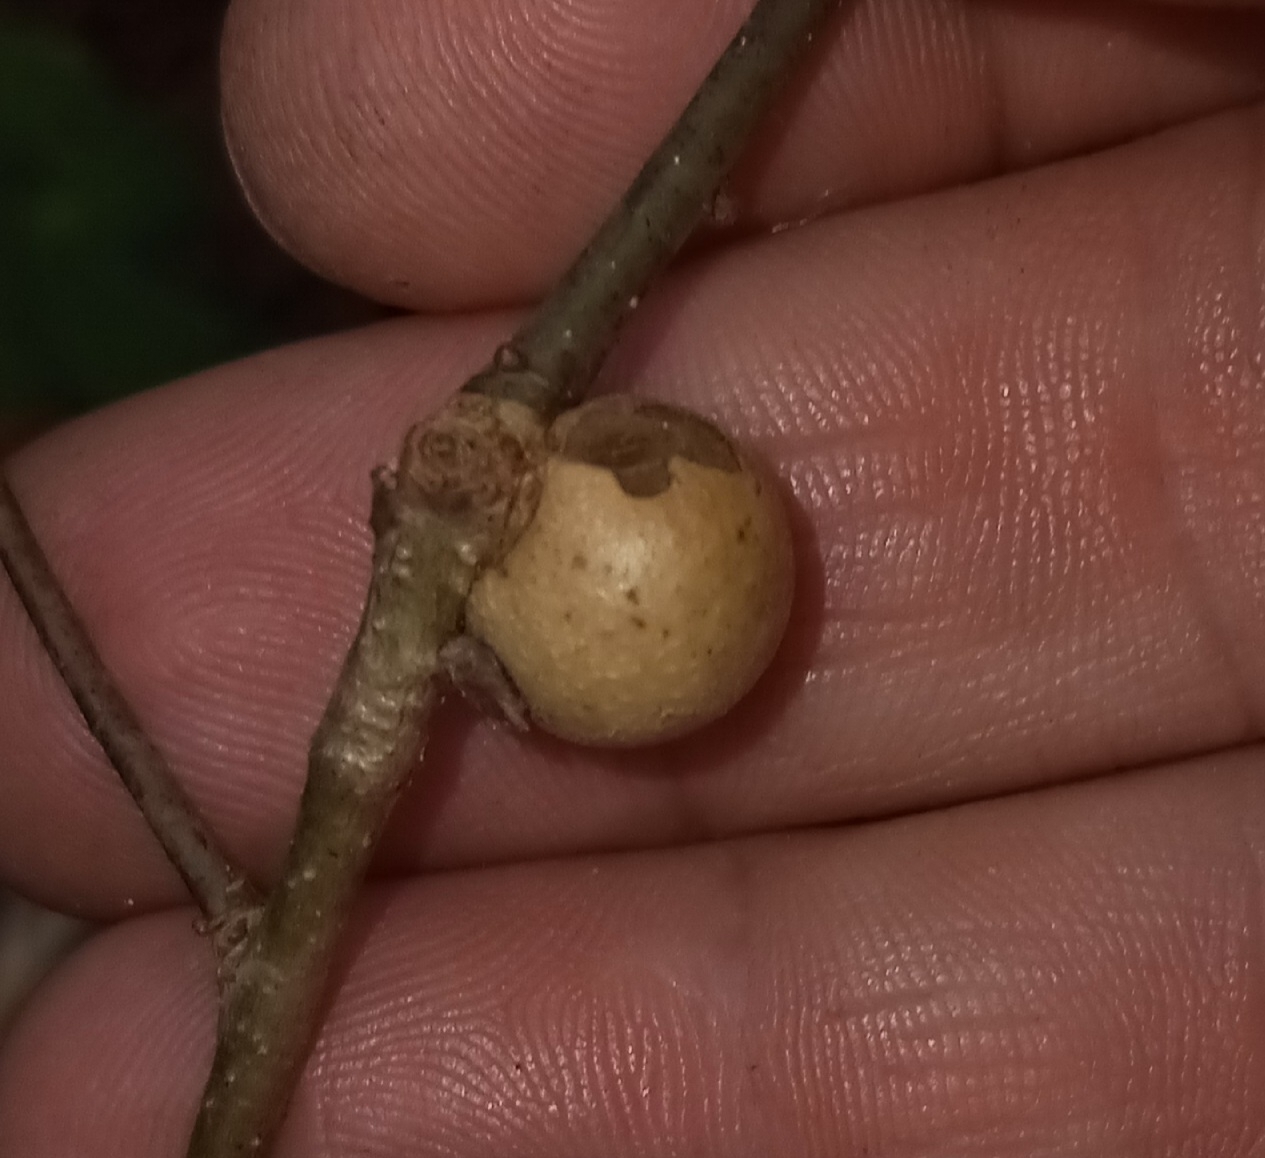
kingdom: Animalia
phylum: Arthropoda
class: Insecta
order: Hymenoptera
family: Cynipidae
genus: Disholcaspis
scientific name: Disholcaspis quercusglobulus
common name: Round bullet gall wasp
